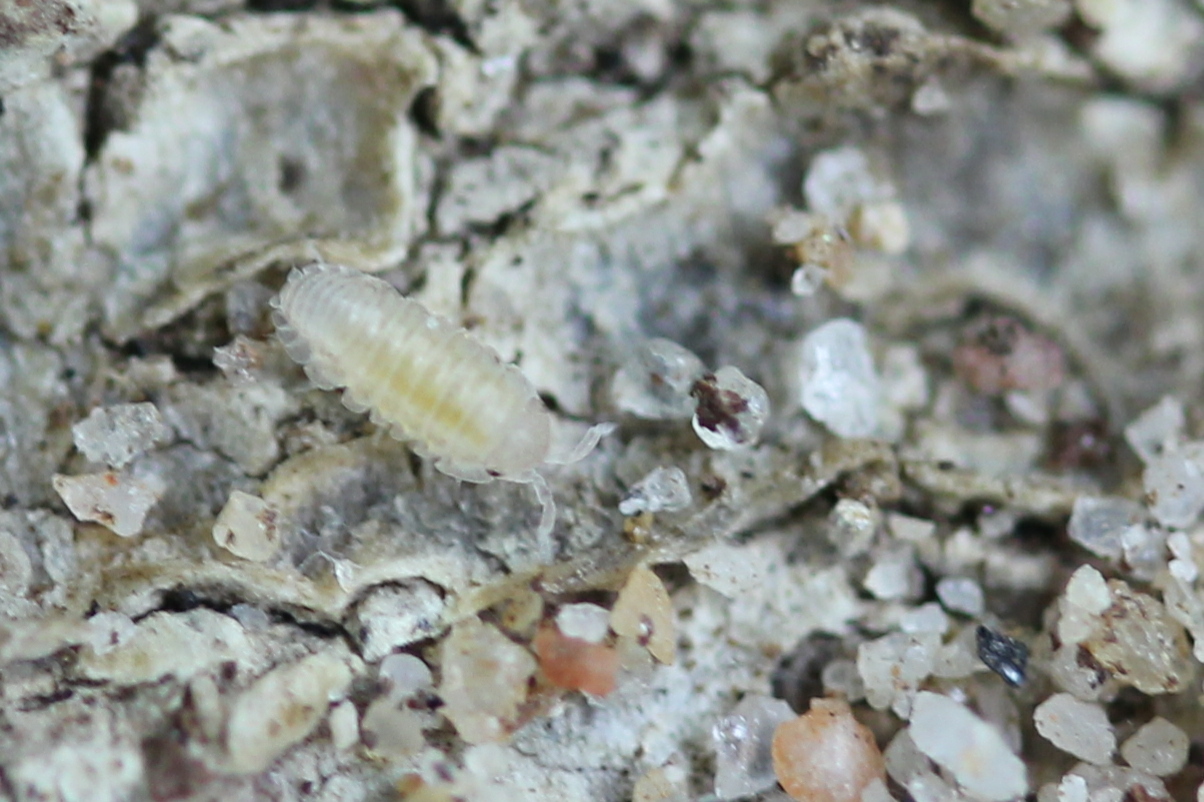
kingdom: Animalia
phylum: Arthropoda
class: Malacostraca
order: Isopoda
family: Armadillidiidae
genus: Armadillidium
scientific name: Armadillidium
